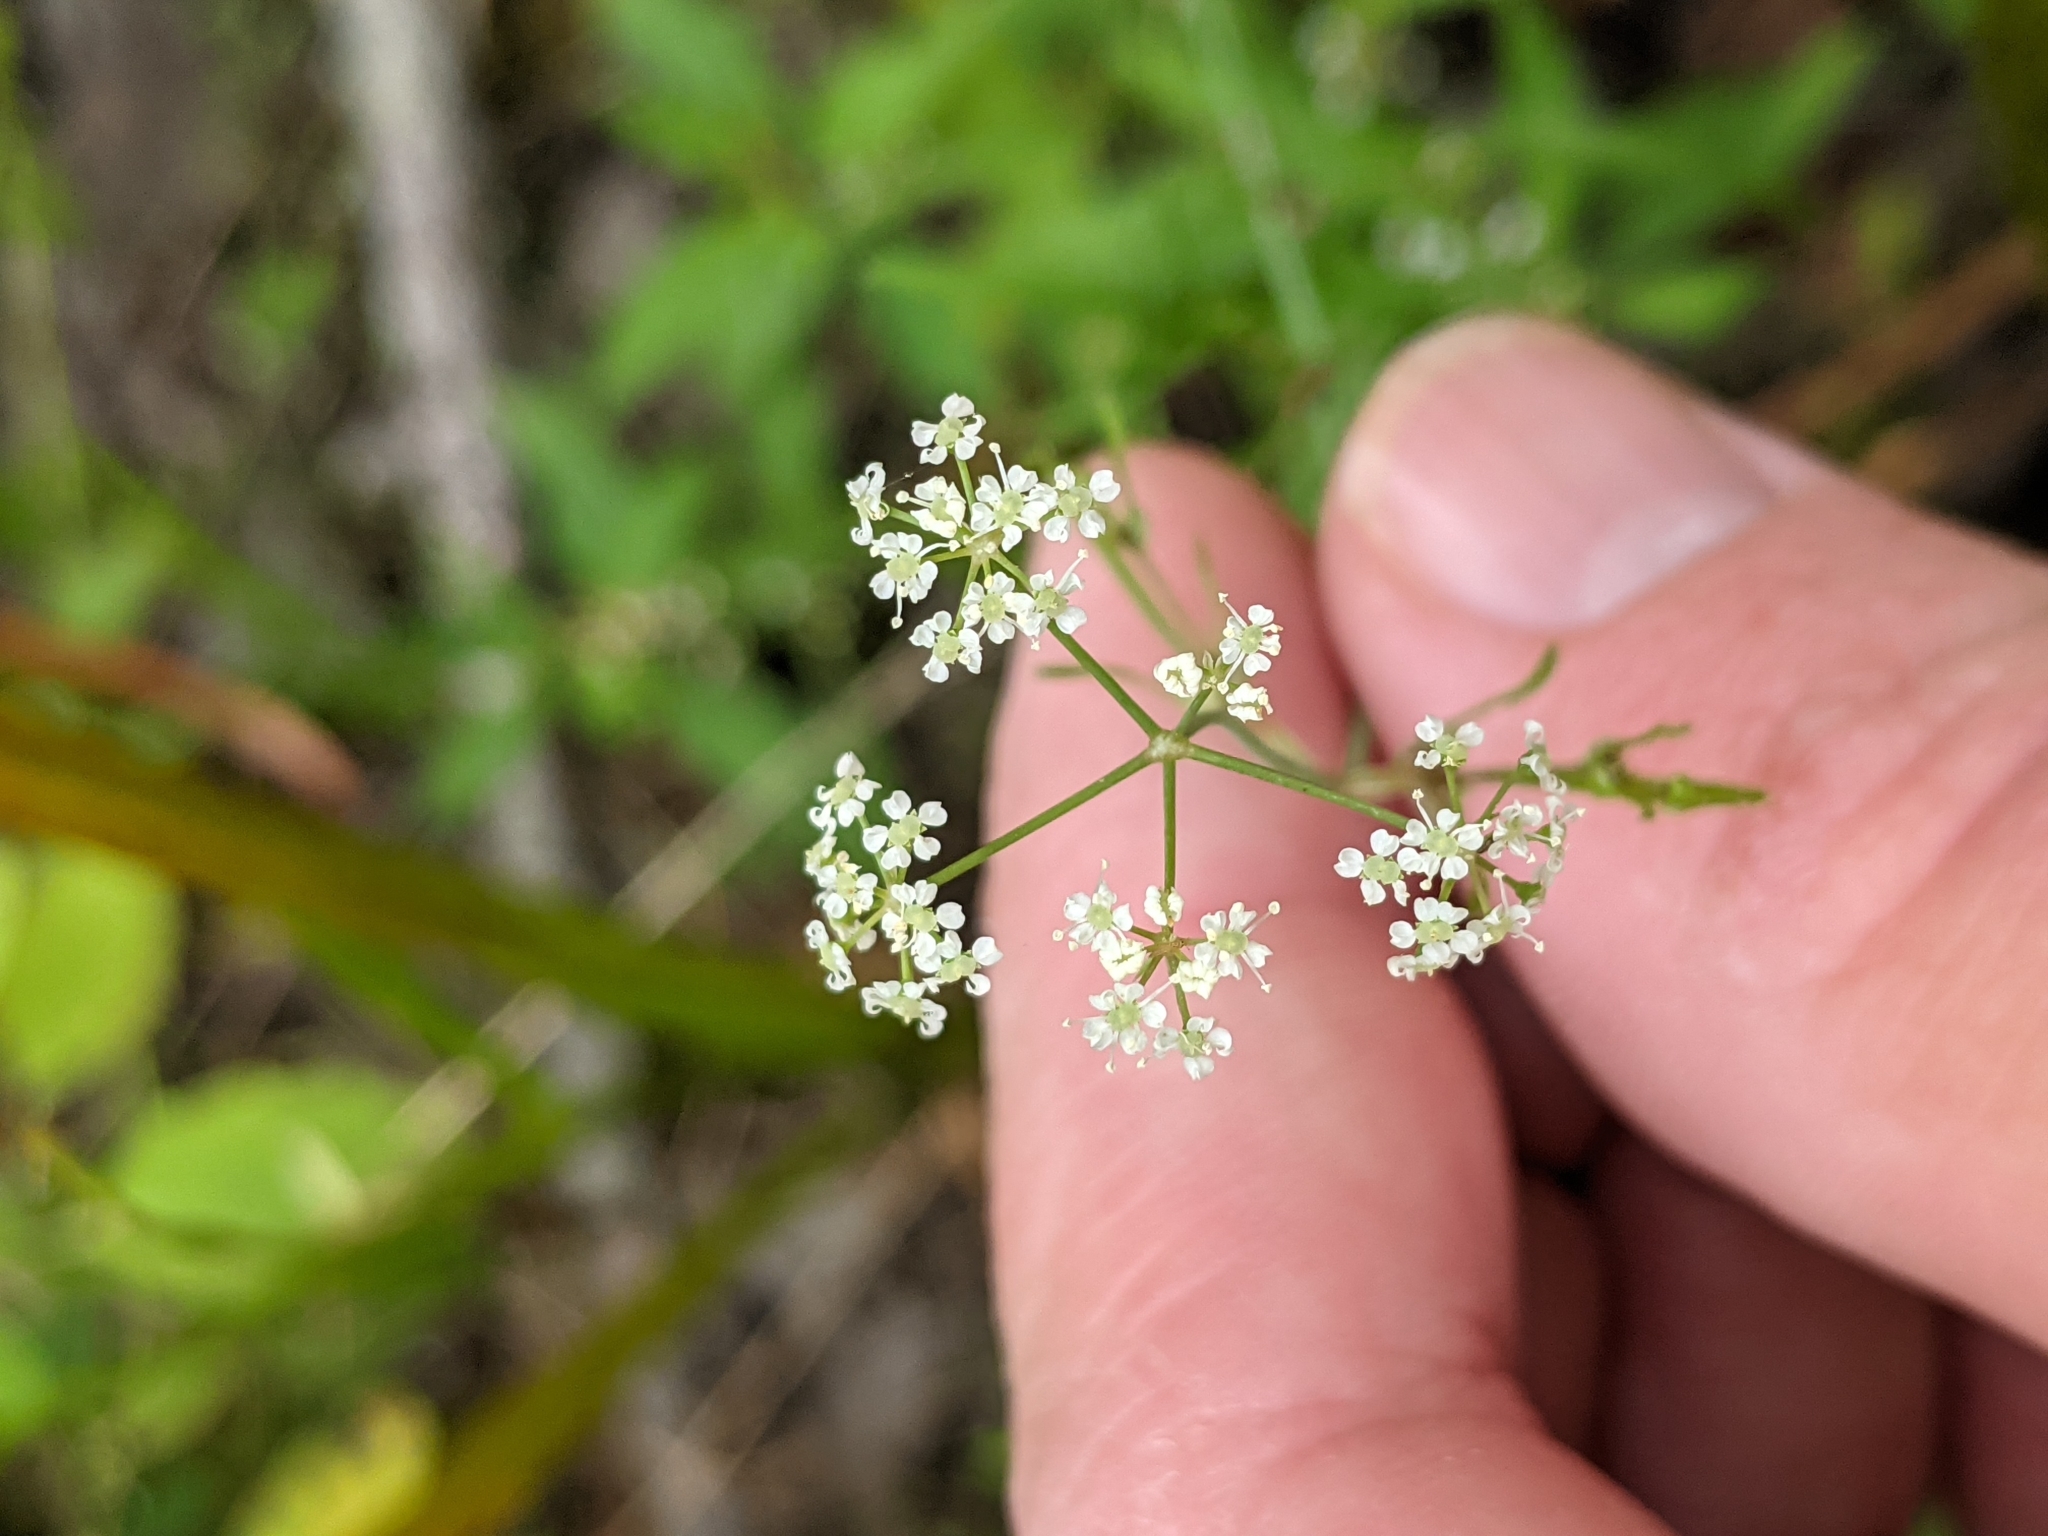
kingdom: Plantae
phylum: Tracheophyta
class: Magnoliopsida
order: Apiales
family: Apiaceae
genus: Cicuta
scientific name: Cicuta bulbifera
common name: Bulb-bearing water-hemlock
